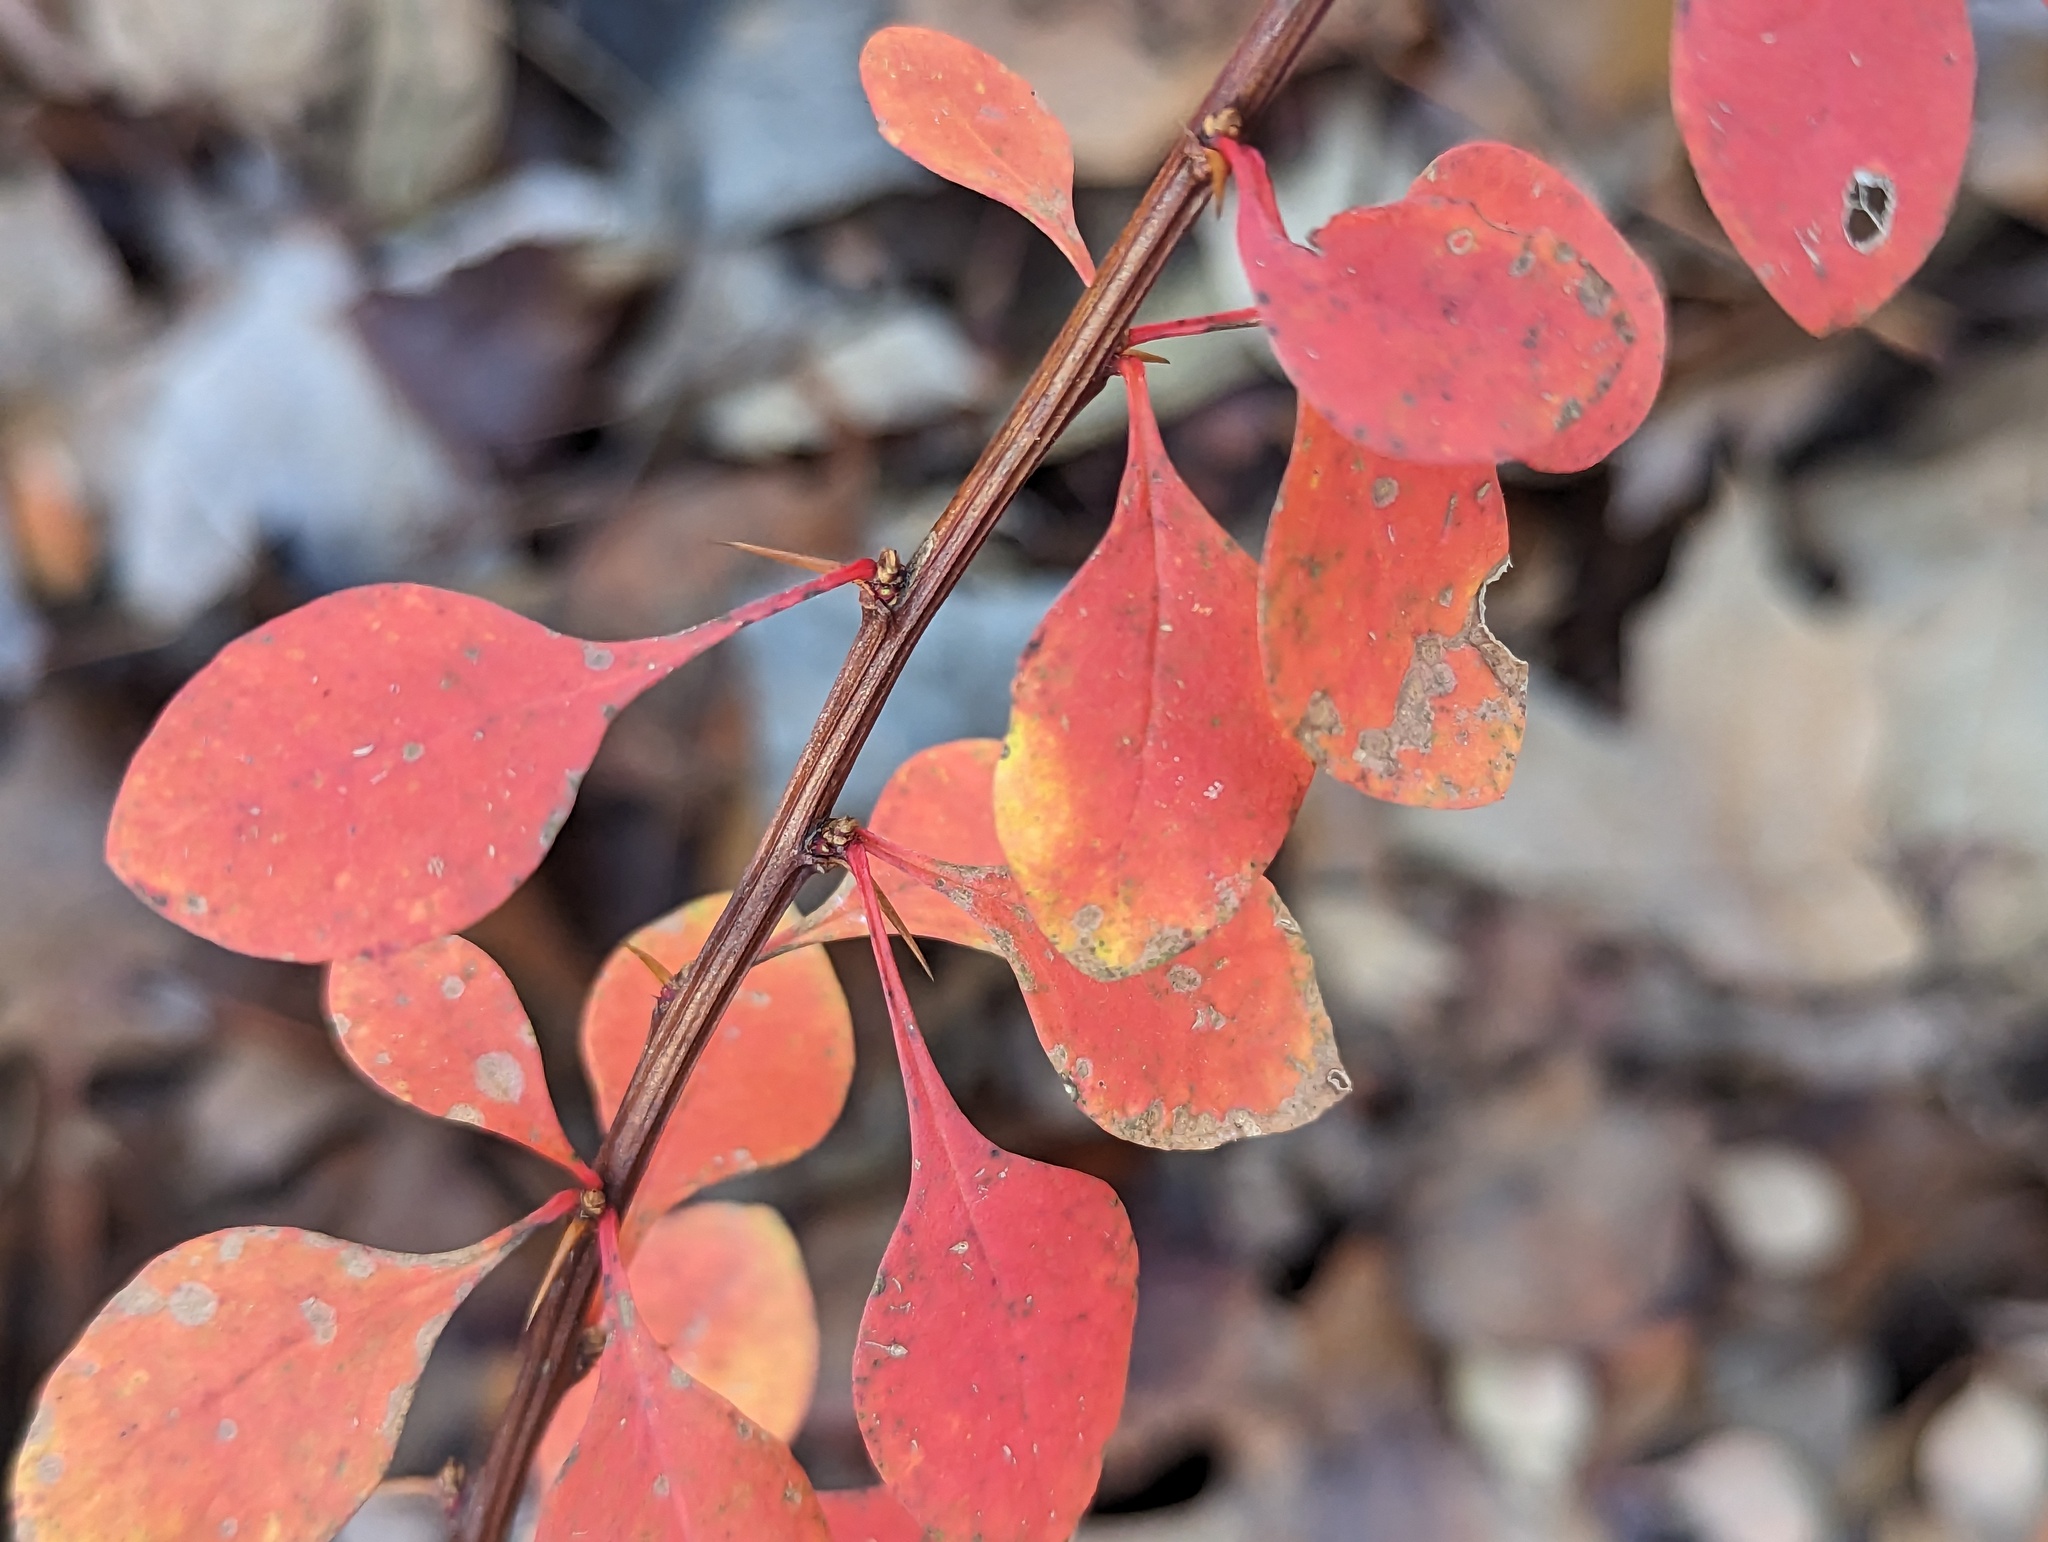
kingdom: Plantae
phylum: Tracheophyta
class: Magnoliopsida
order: Ranunculales
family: Berberidaceae
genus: Berberis
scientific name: Berberis thunbergii
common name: Japanese barberry
